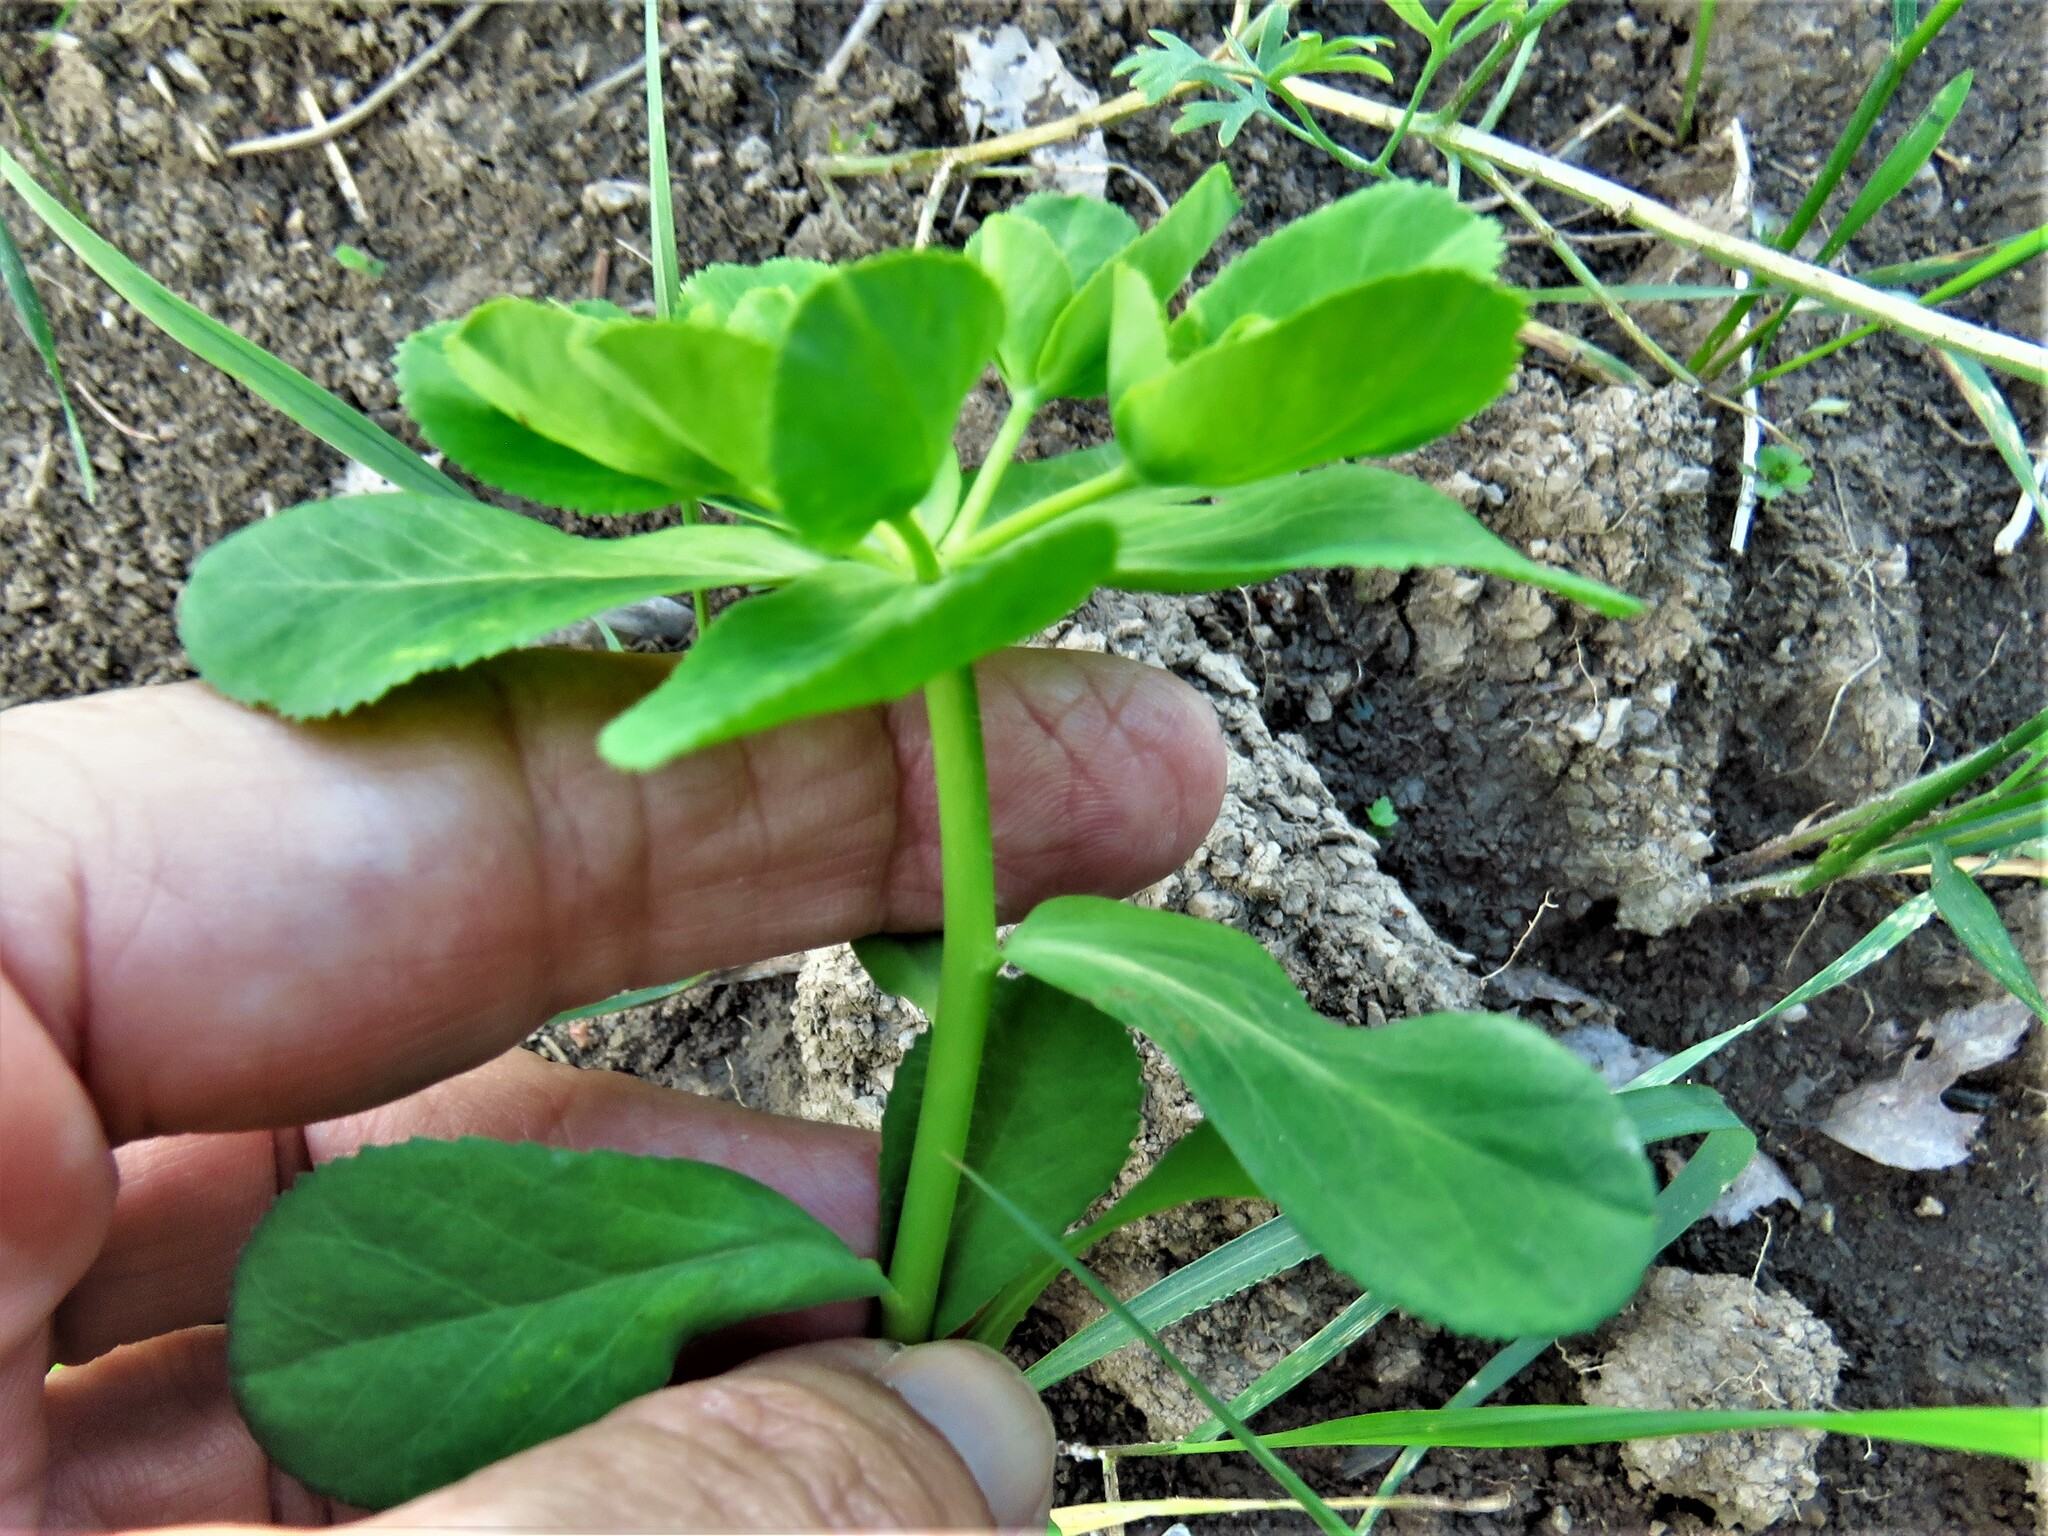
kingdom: Plantae
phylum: Tracheophyta
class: Magnoliopsida
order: Malpighiales
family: Euphorbiaceae
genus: Euphorbia
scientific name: Euphorbia helioscopia
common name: Sun spurge
